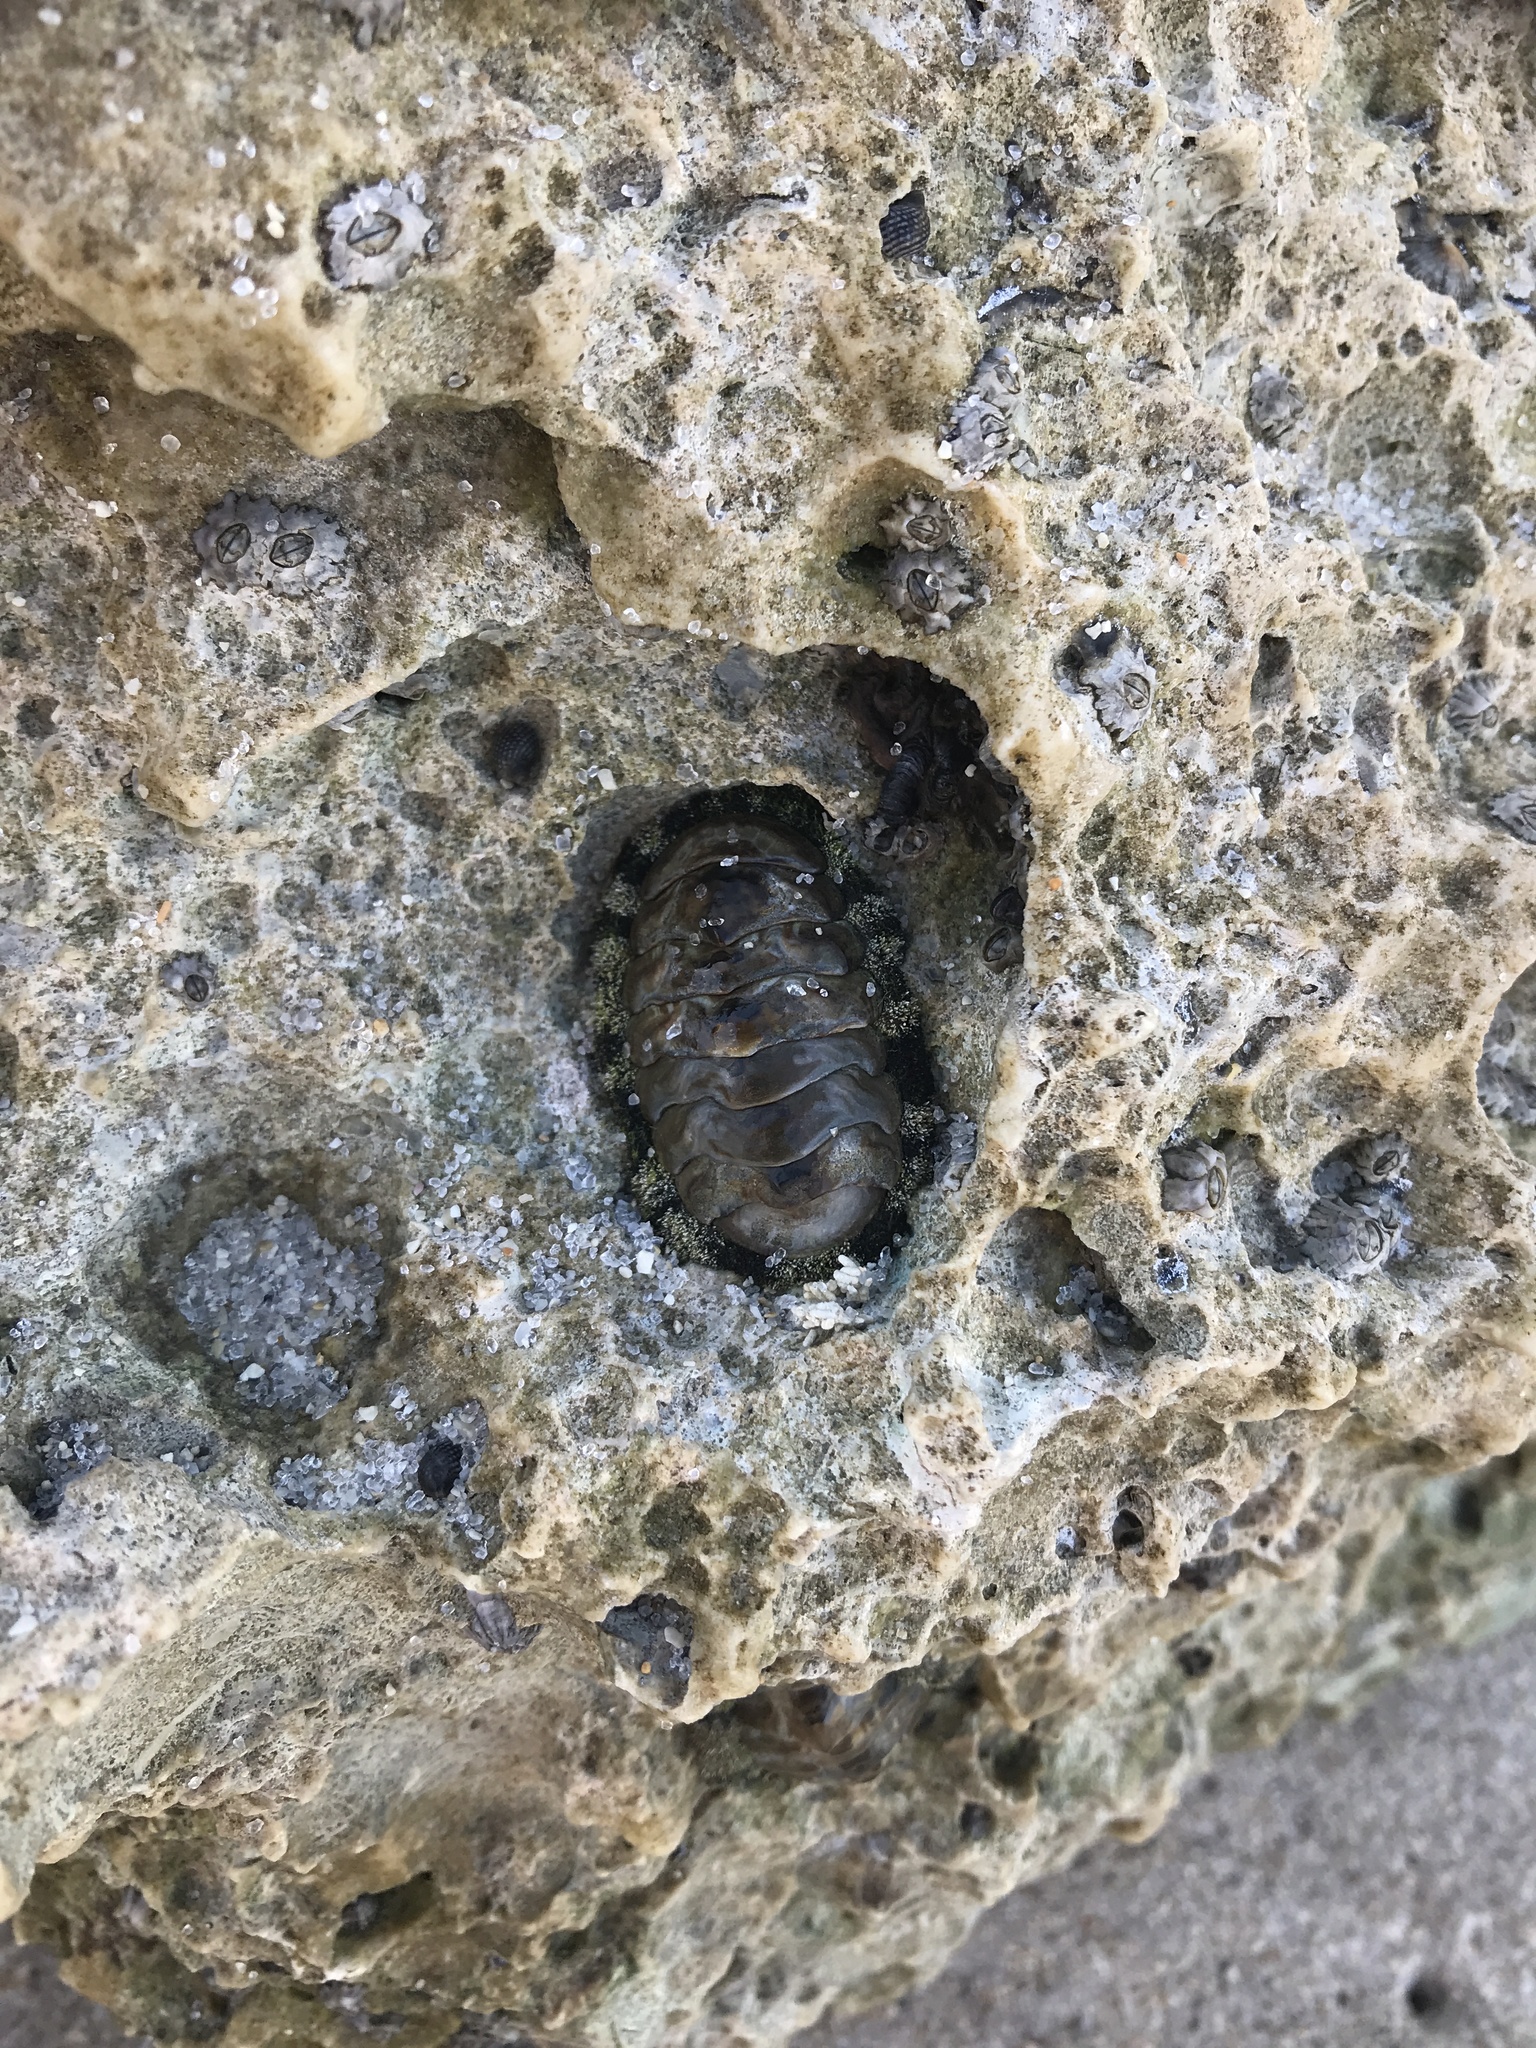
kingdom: Animalia
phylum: Mollusca
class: Polyplacophora
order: Chitonida
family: Chitonidae
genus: Acanthopleura
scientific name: Acanthopleura granulata
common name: West indian fuzzy chiton
